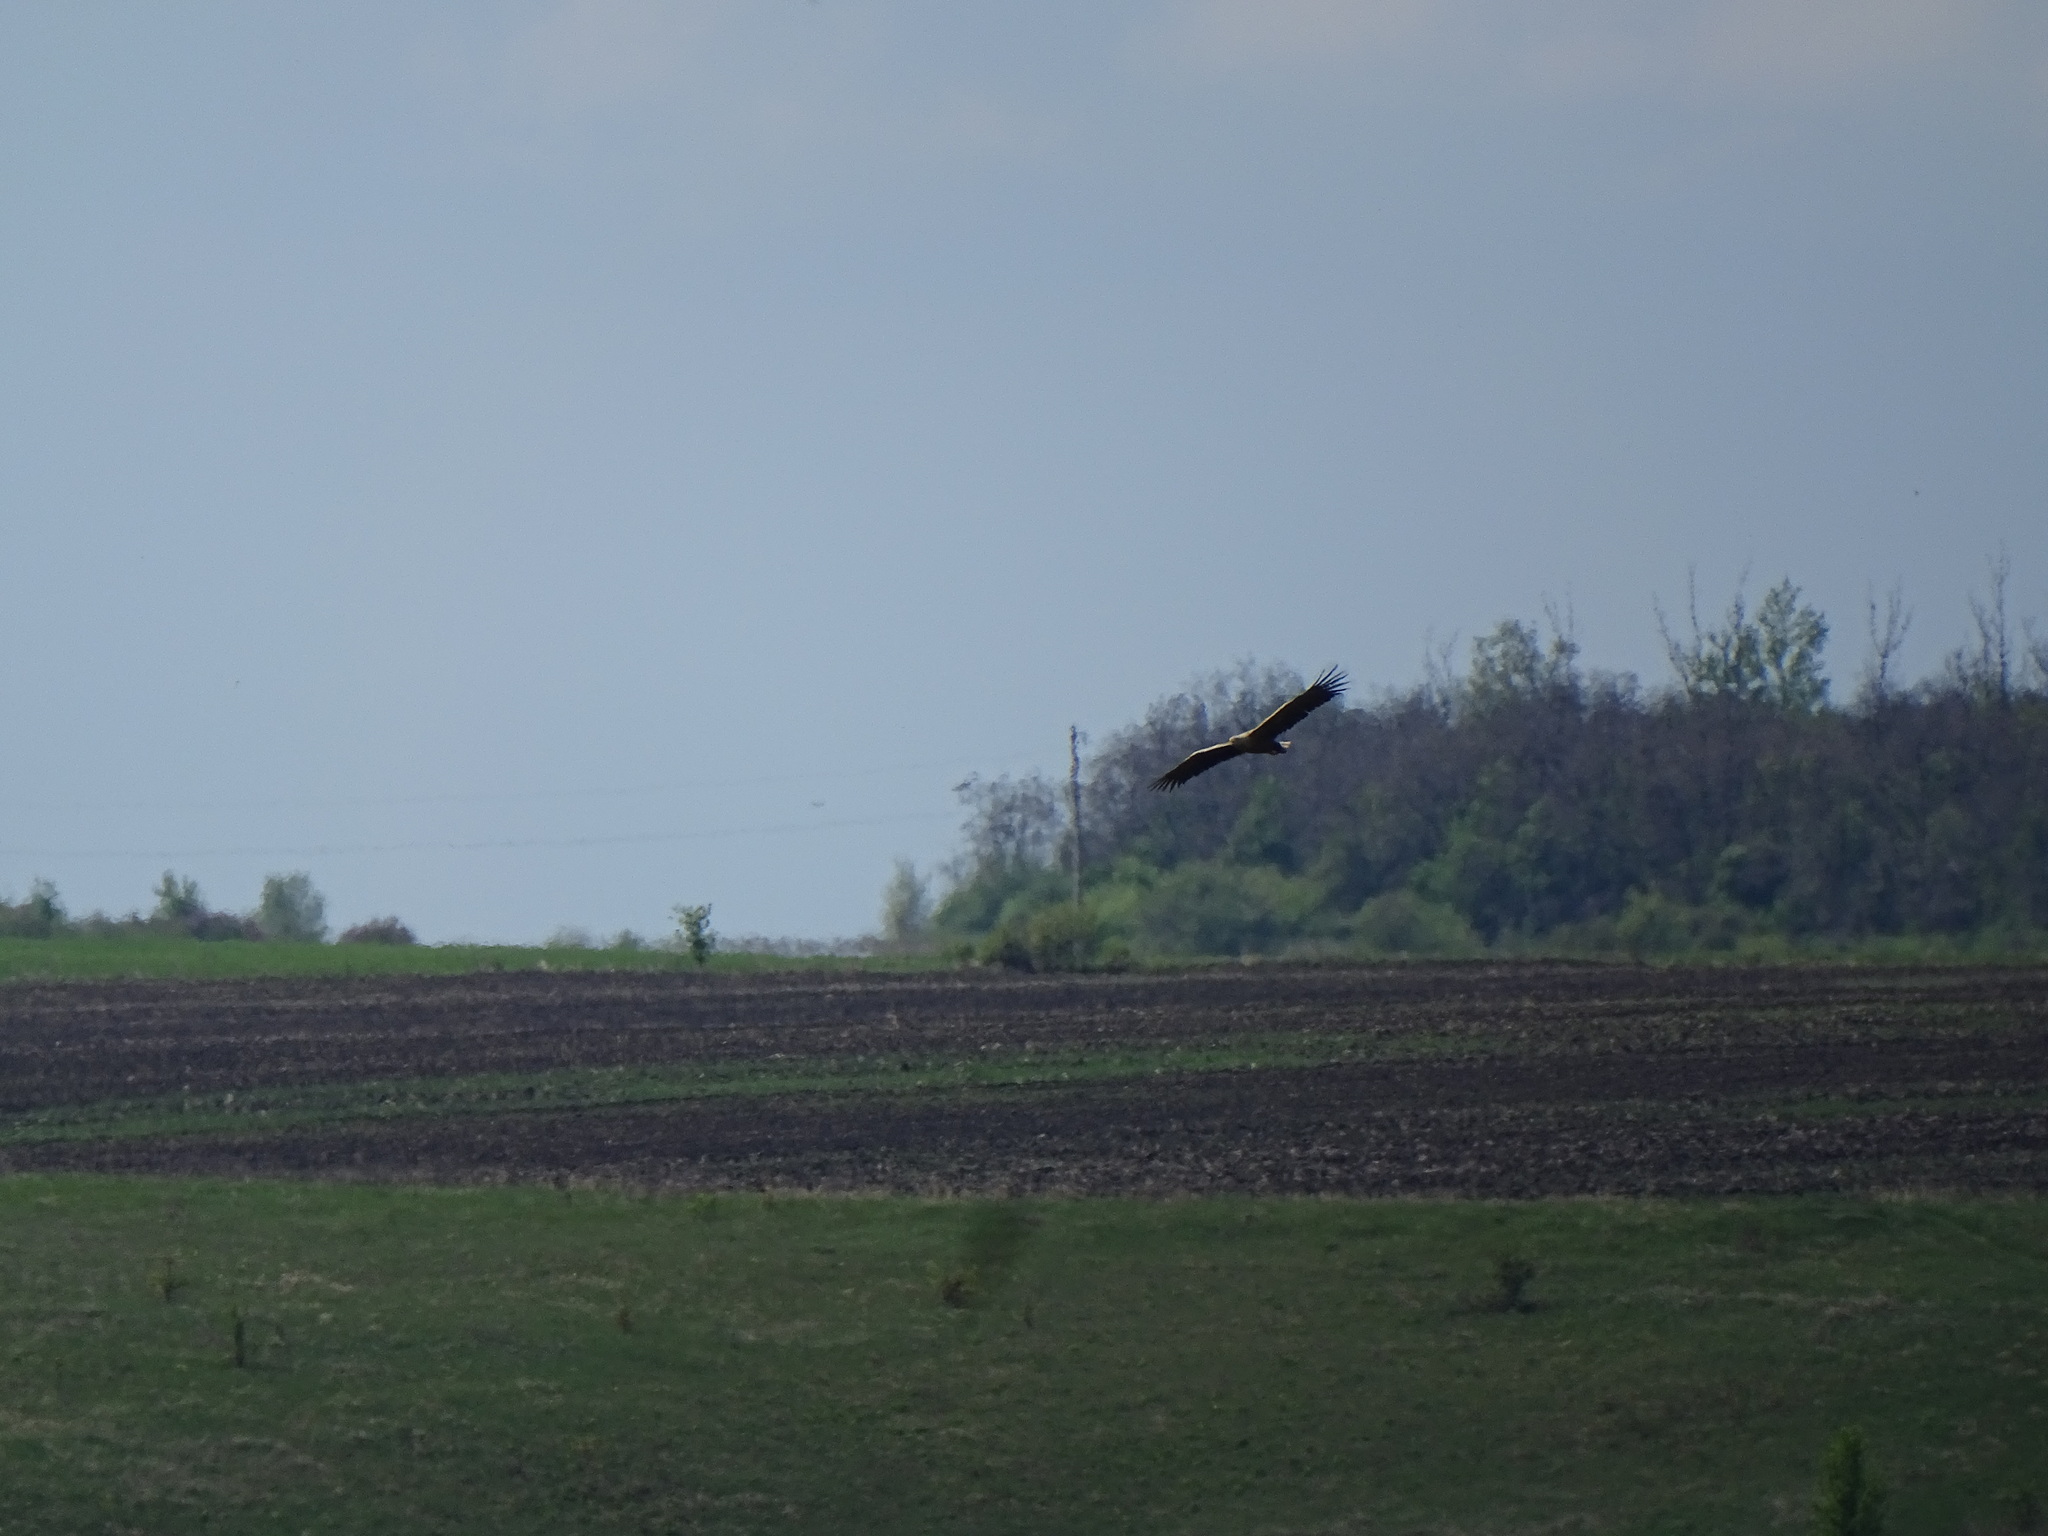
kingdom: Animalia
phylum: Chordata
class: Aves
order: Accipitriformes
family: Accipitridae
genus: Haliaeetus
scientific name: Haliaeetus albicilla
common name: White-tailed eagle
